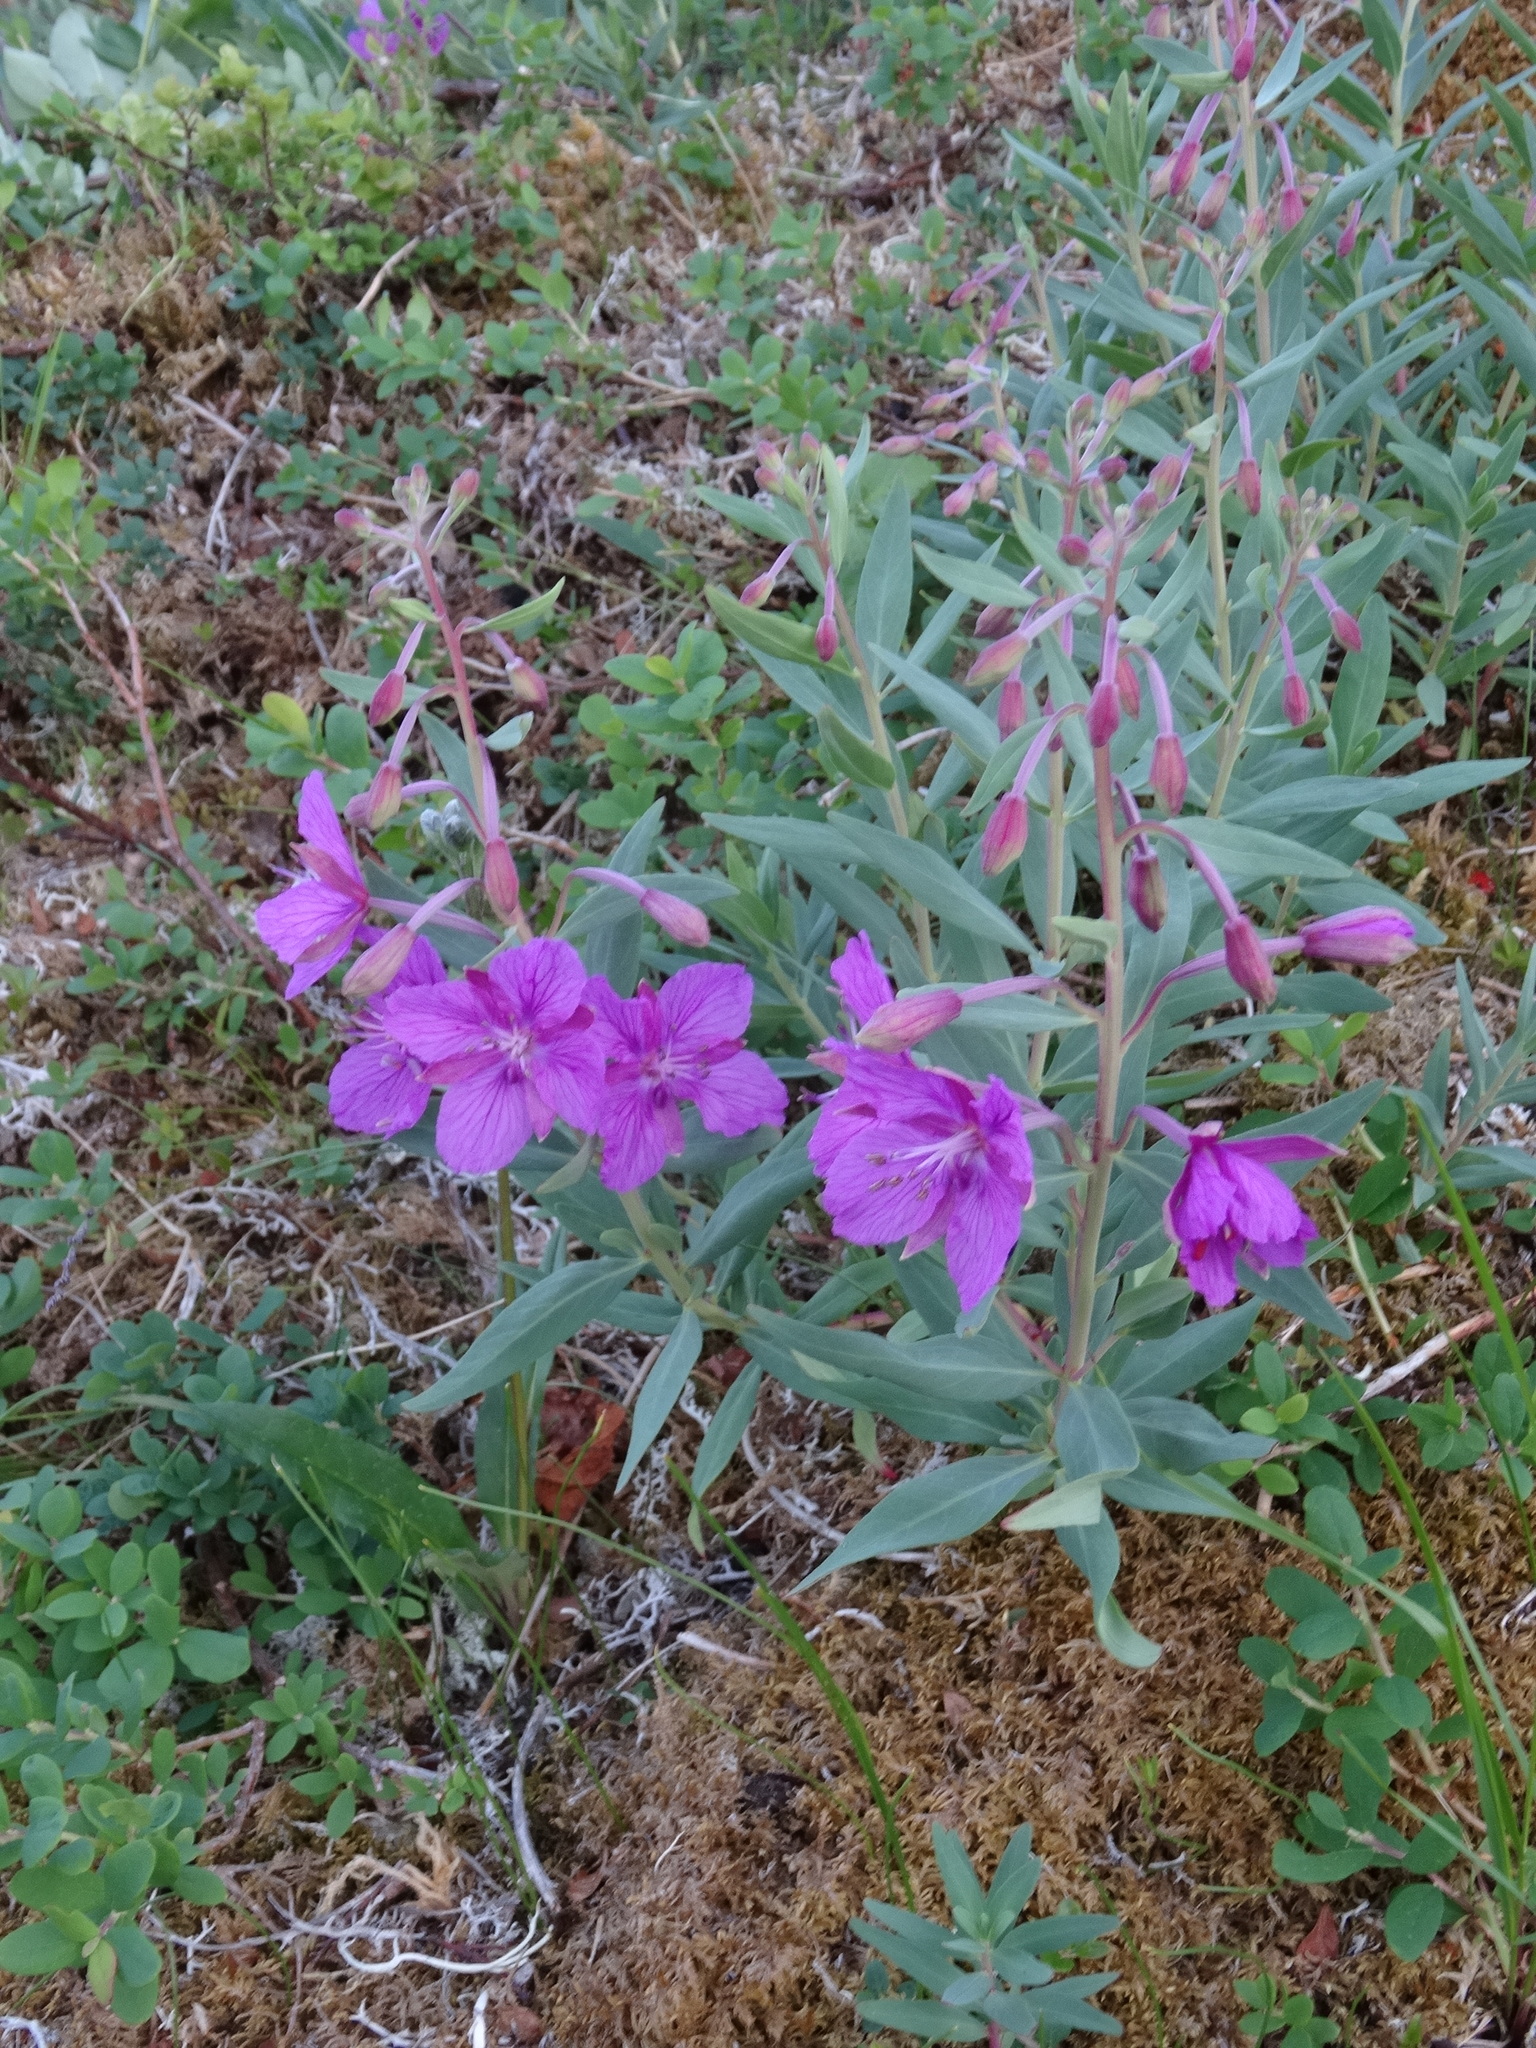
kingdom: Plantae
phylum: Tracheophyta
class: Magnoliopsida
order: Myrtales
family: Onagraceae
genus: Chamaenerion
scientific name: Chamaenerion latifolium
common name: Dwarf fireweed
